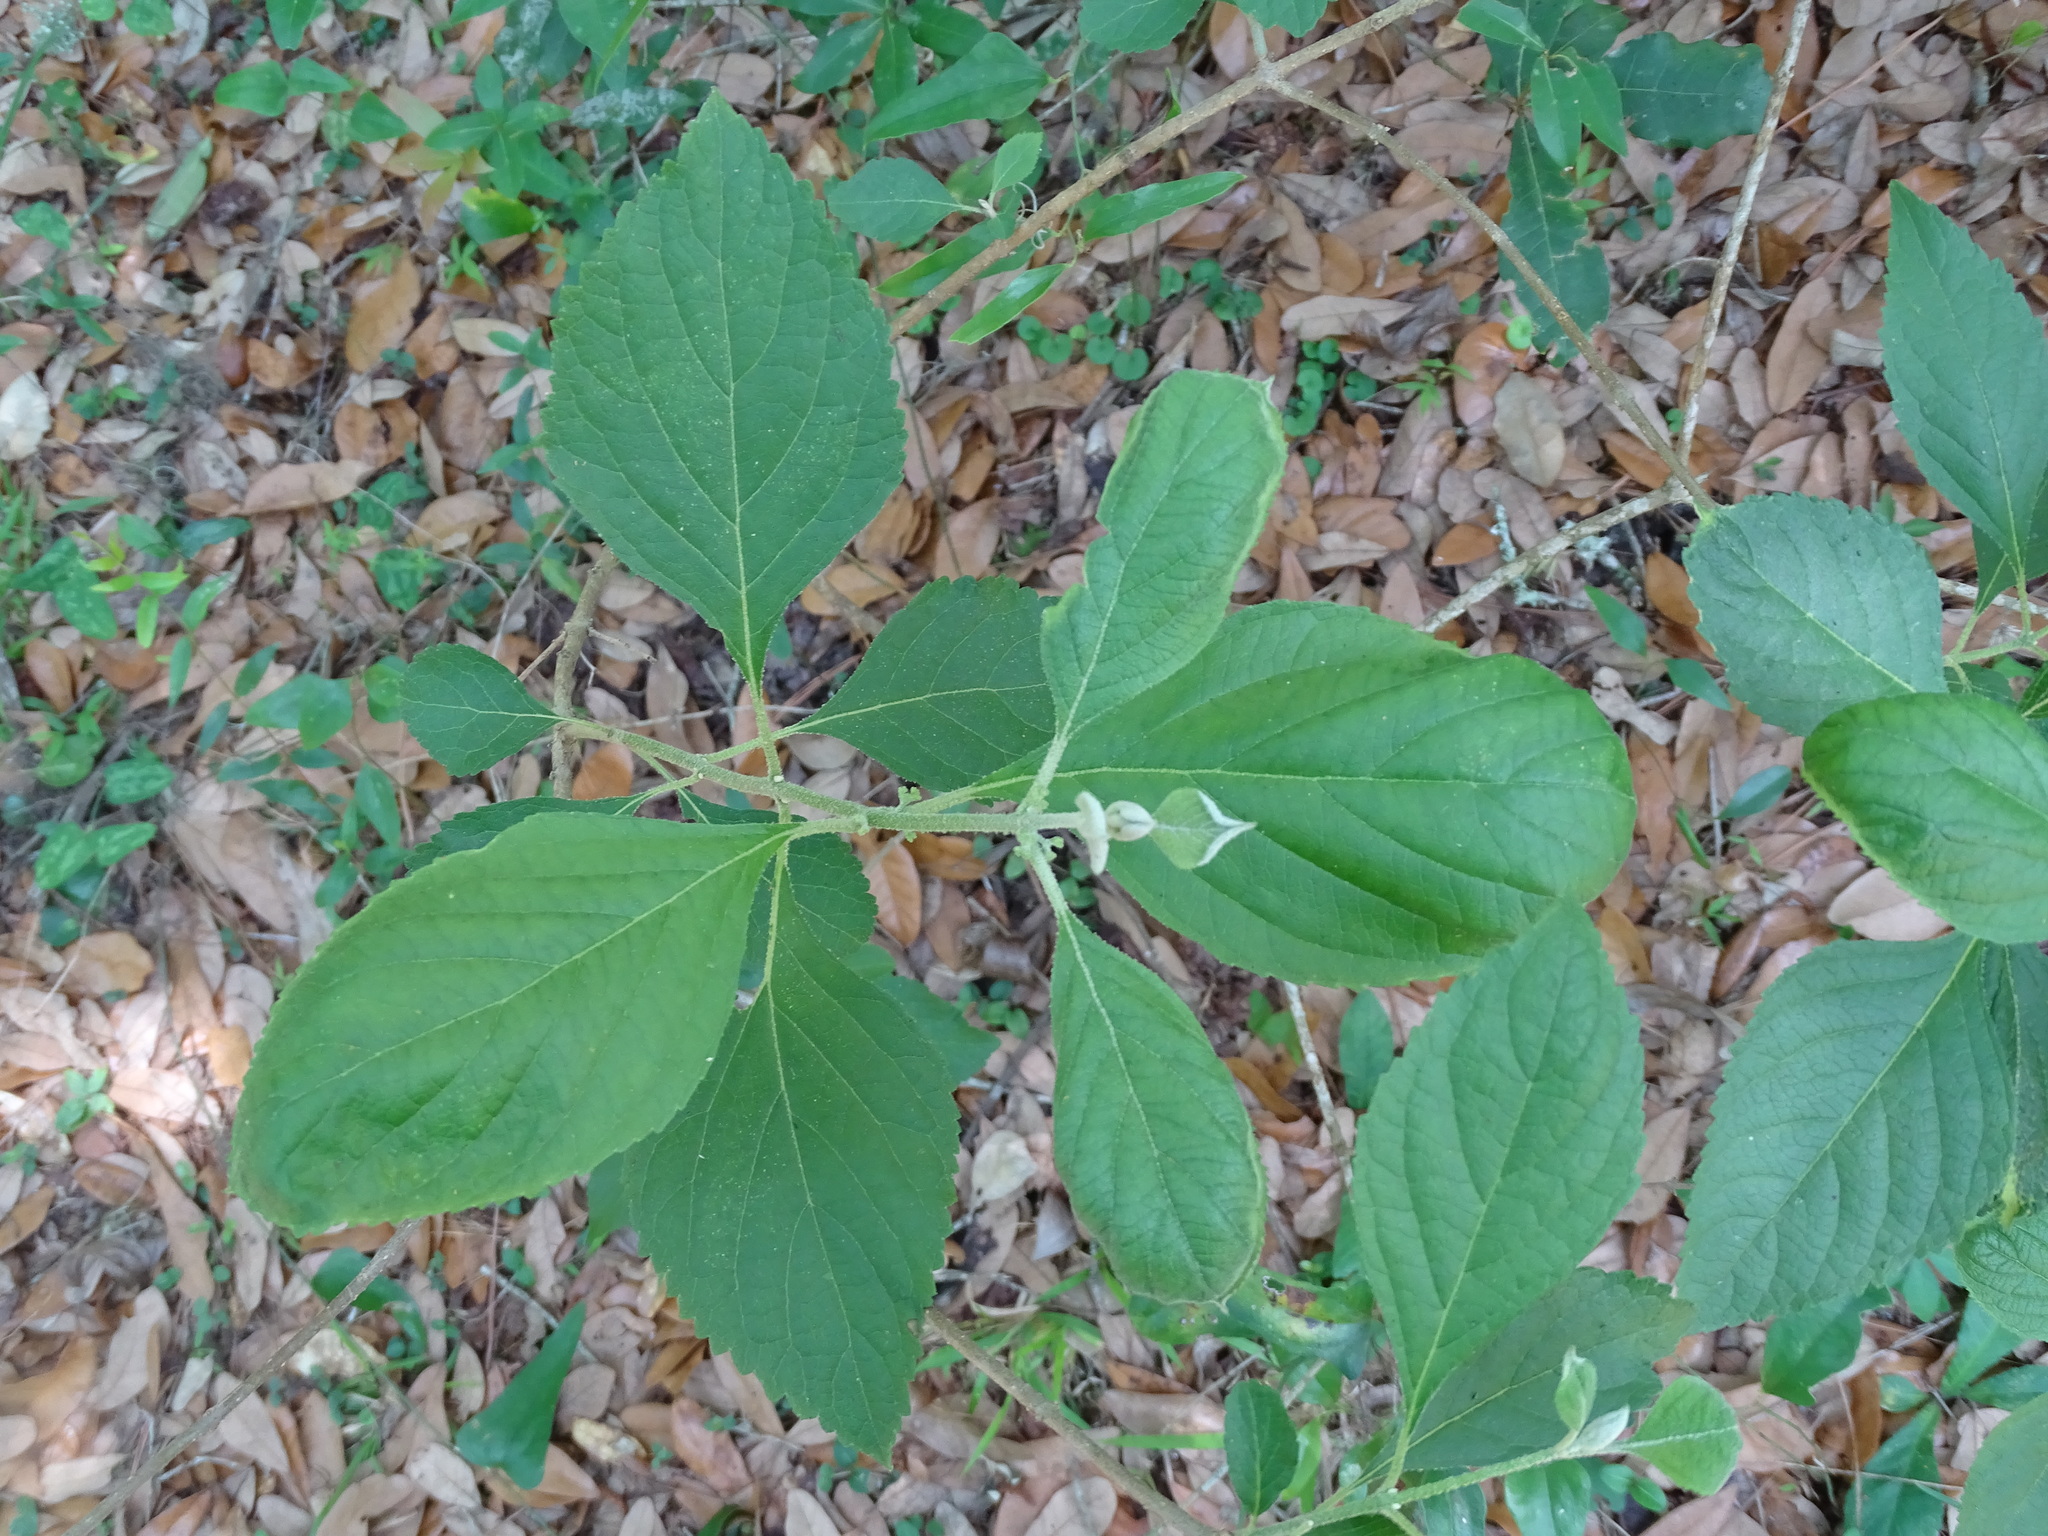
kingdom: Plantae
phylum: Tracheophyta
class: Magnoliopsida
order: Lamiales
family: Lamiaceae
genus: Callicarpa
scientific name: Callicarpa americana
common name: American beautyberry
